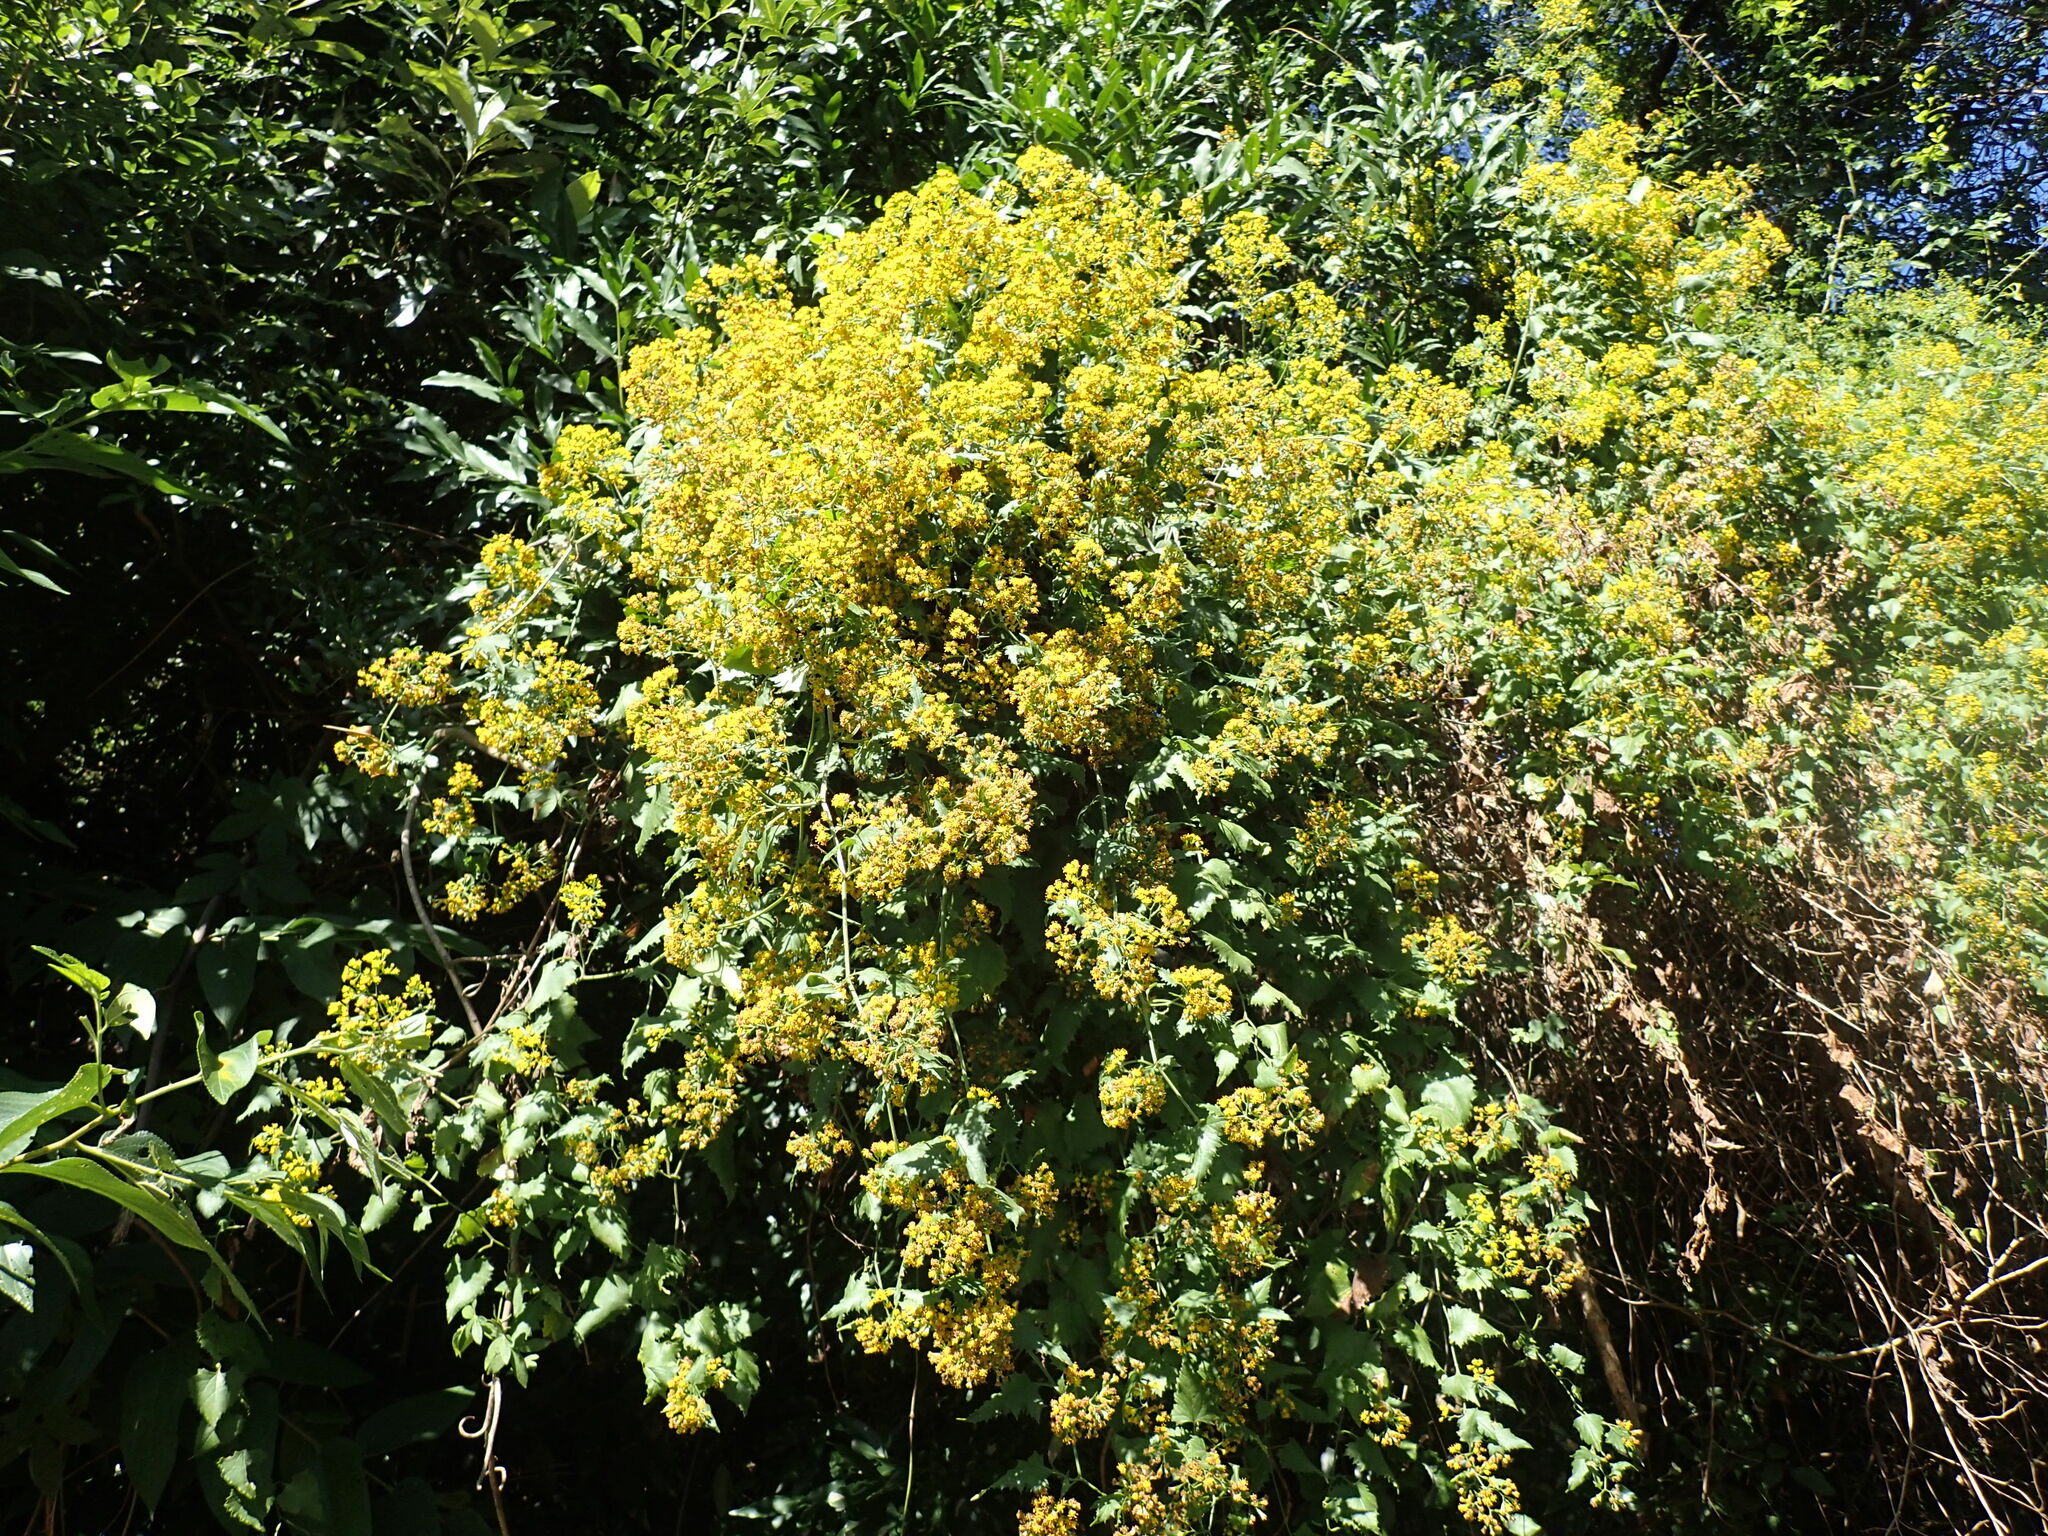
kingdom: Plantae
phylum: Tracheophyta
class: Magnoliopsida
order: Asterales
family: Asteraceae
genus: Senecio
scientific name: Senecio deltoideus
